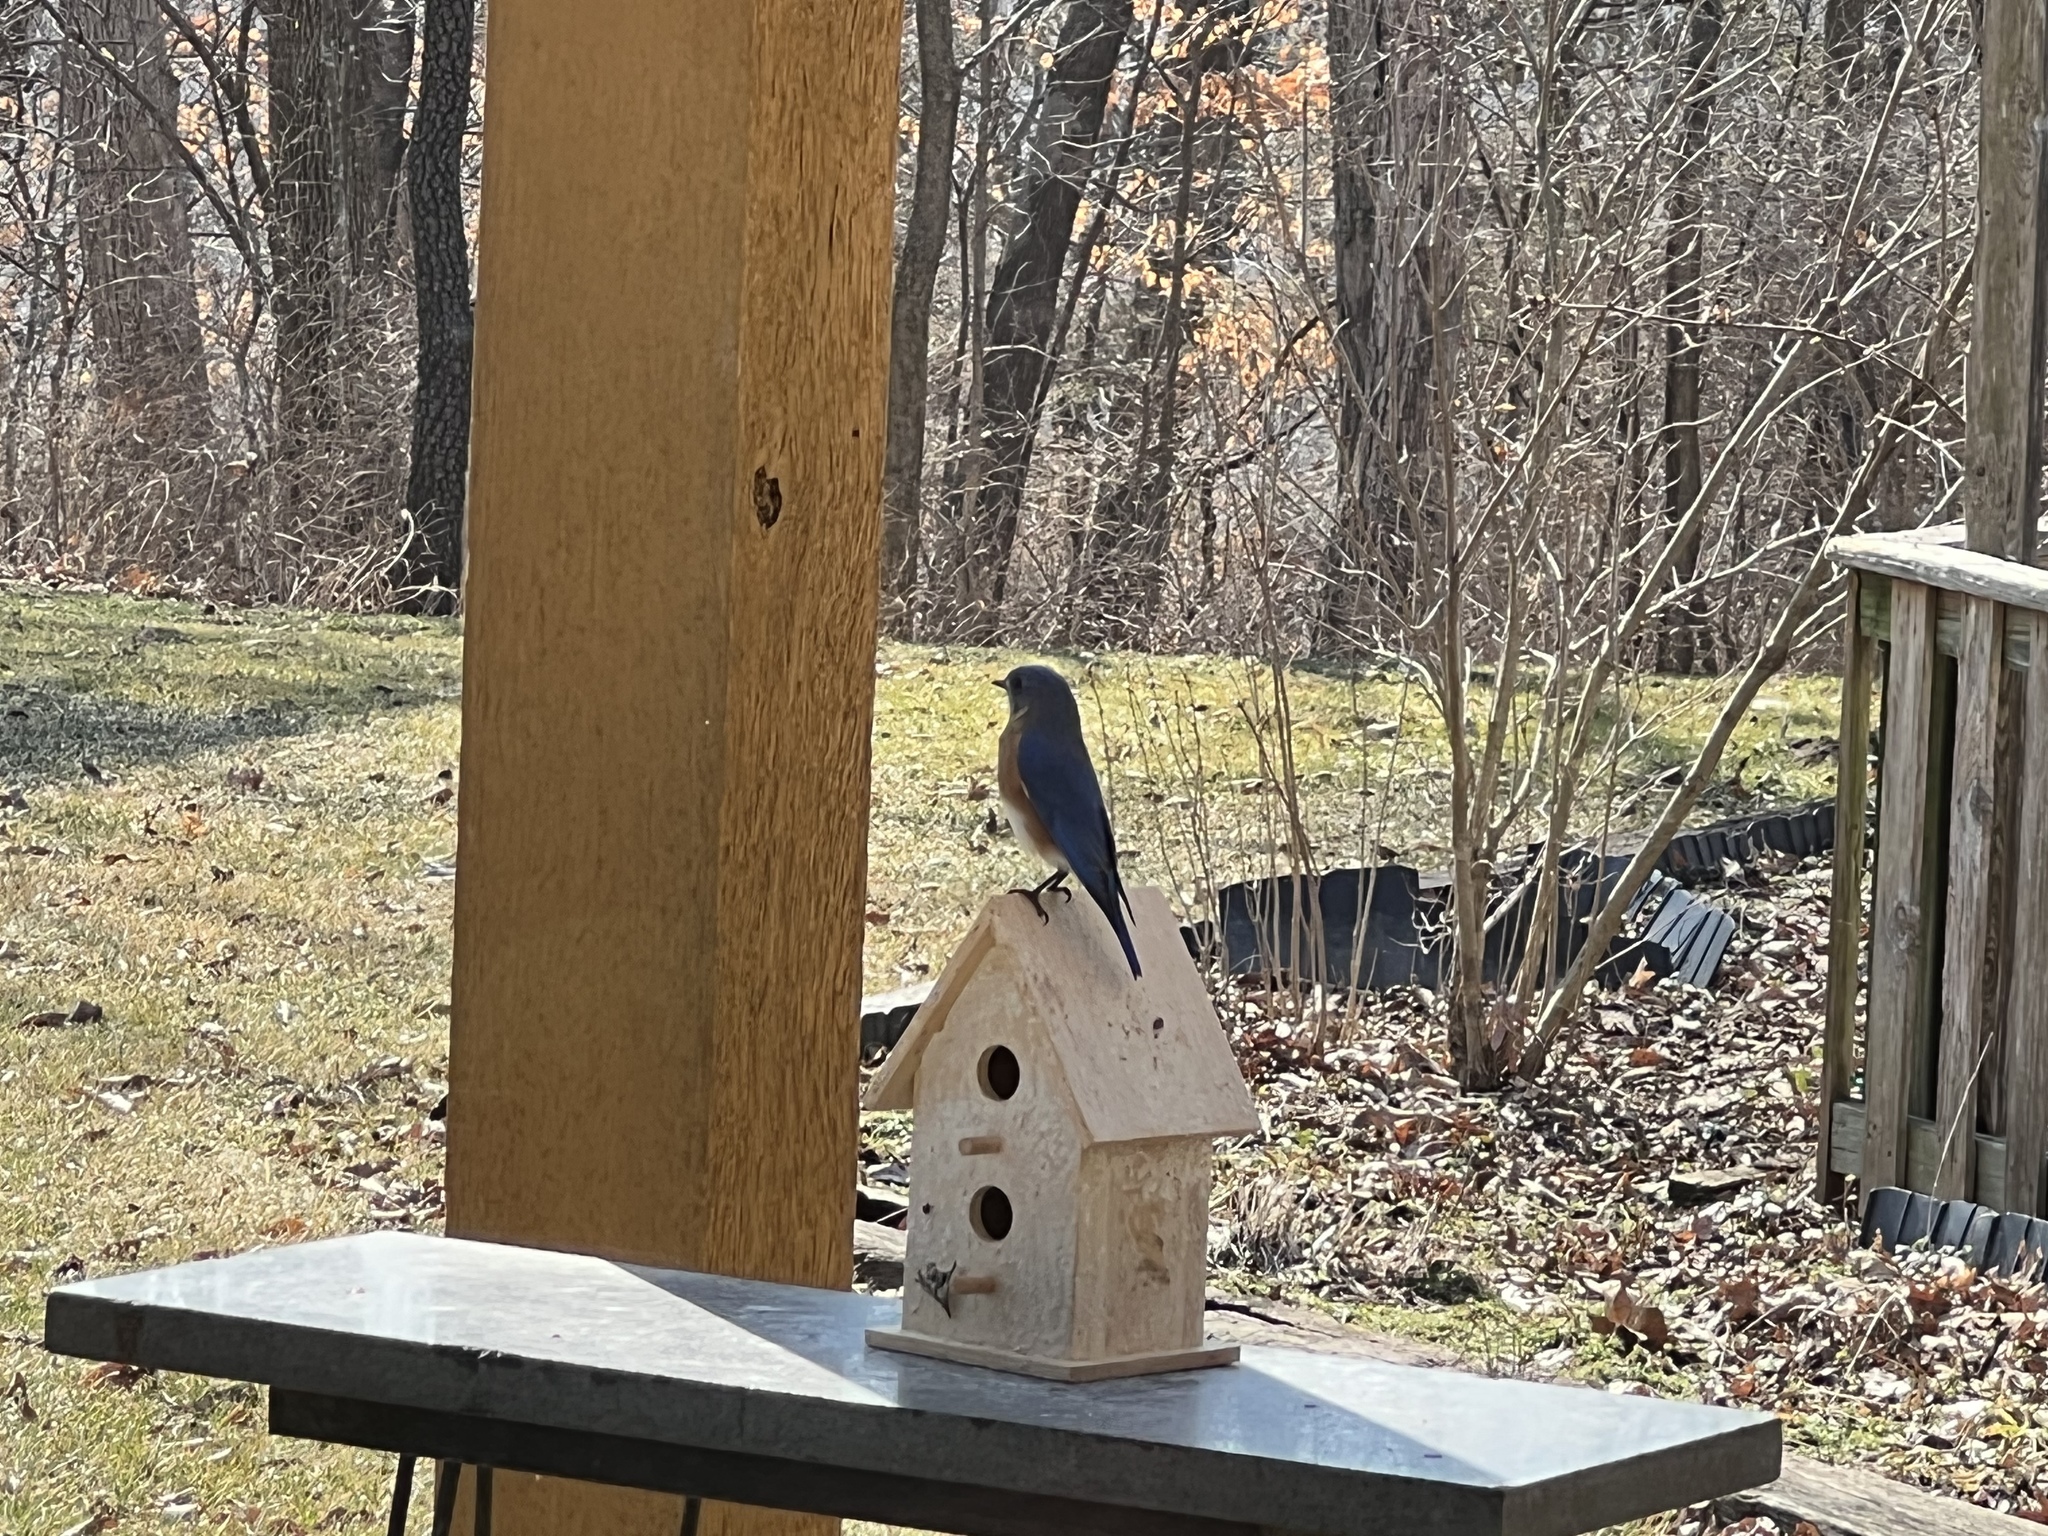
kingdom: Animalia
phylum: Chordata
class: Aves
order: Passeriformes
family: Turdidae
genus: Sialia
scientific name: Sialia sialis
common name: Eastern bluebird
